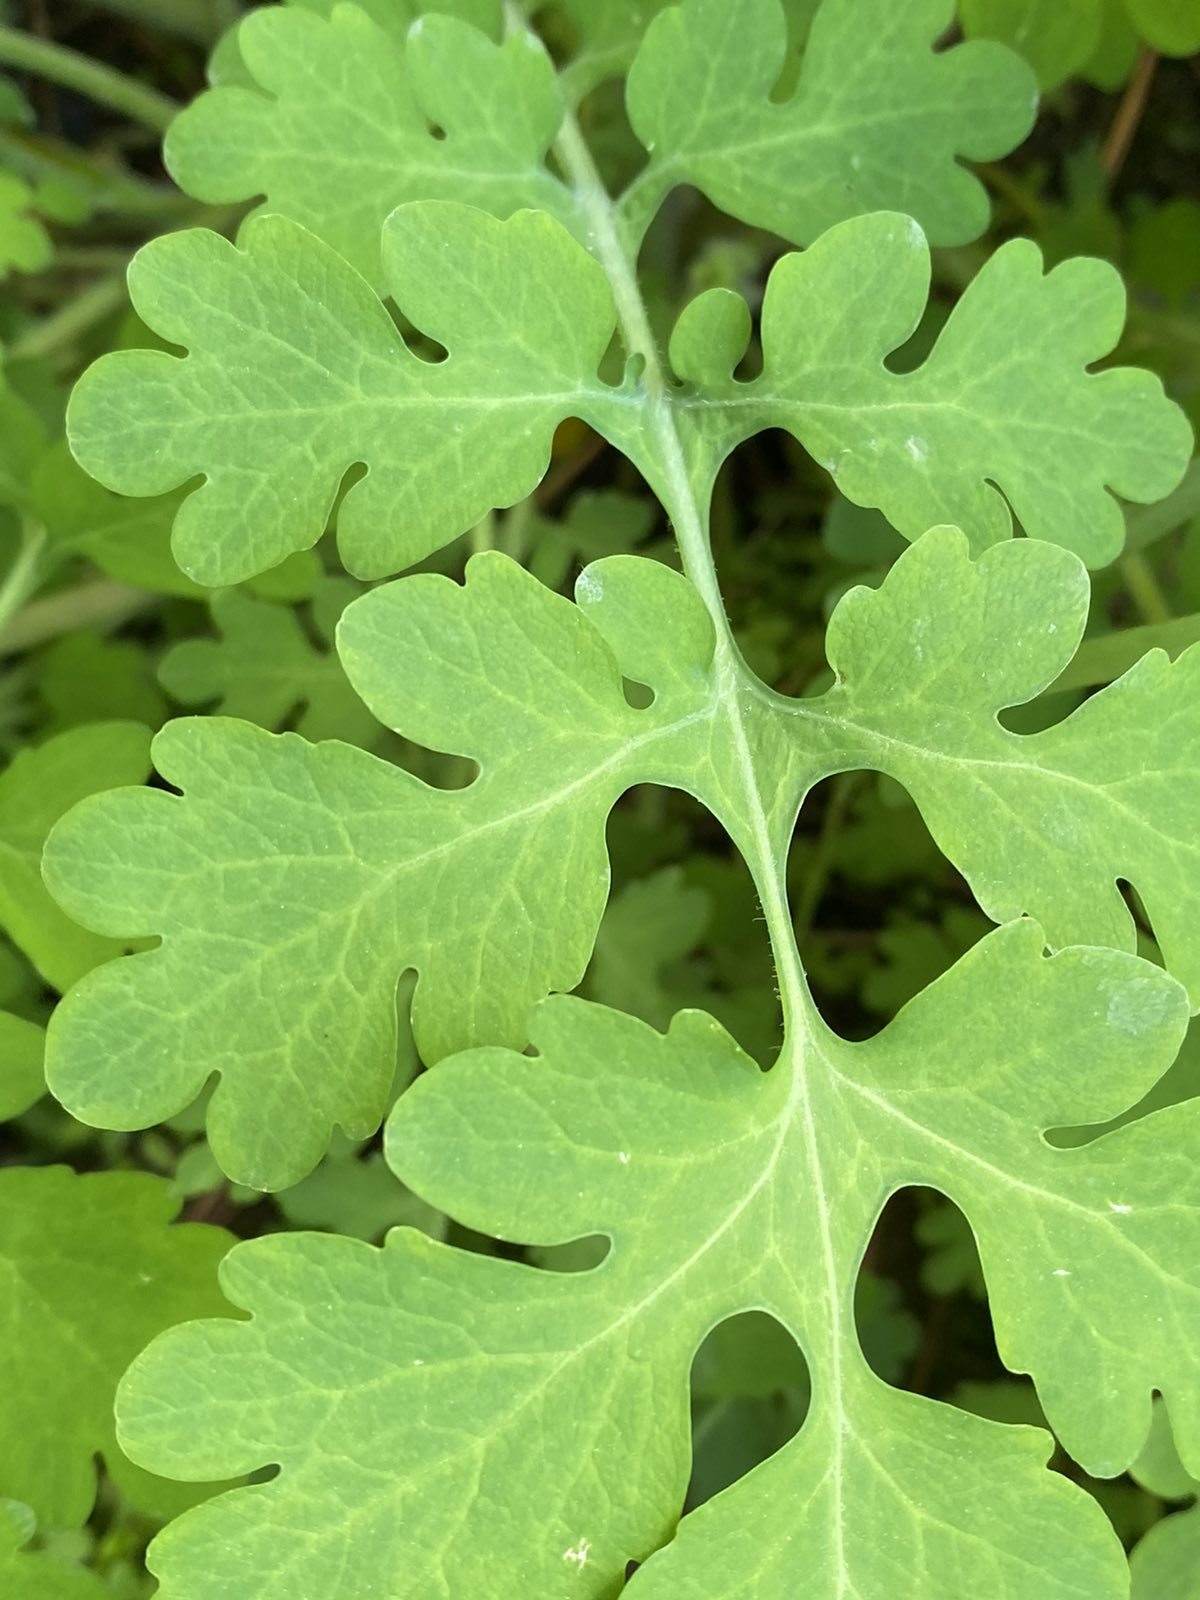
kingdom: Plantae
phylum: Tracheophyta
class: Magnoliopsida
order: Ranunculales
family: Papaveraceae
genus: Chelidonium
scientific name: Chelidonium majus
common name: Greater celandine
